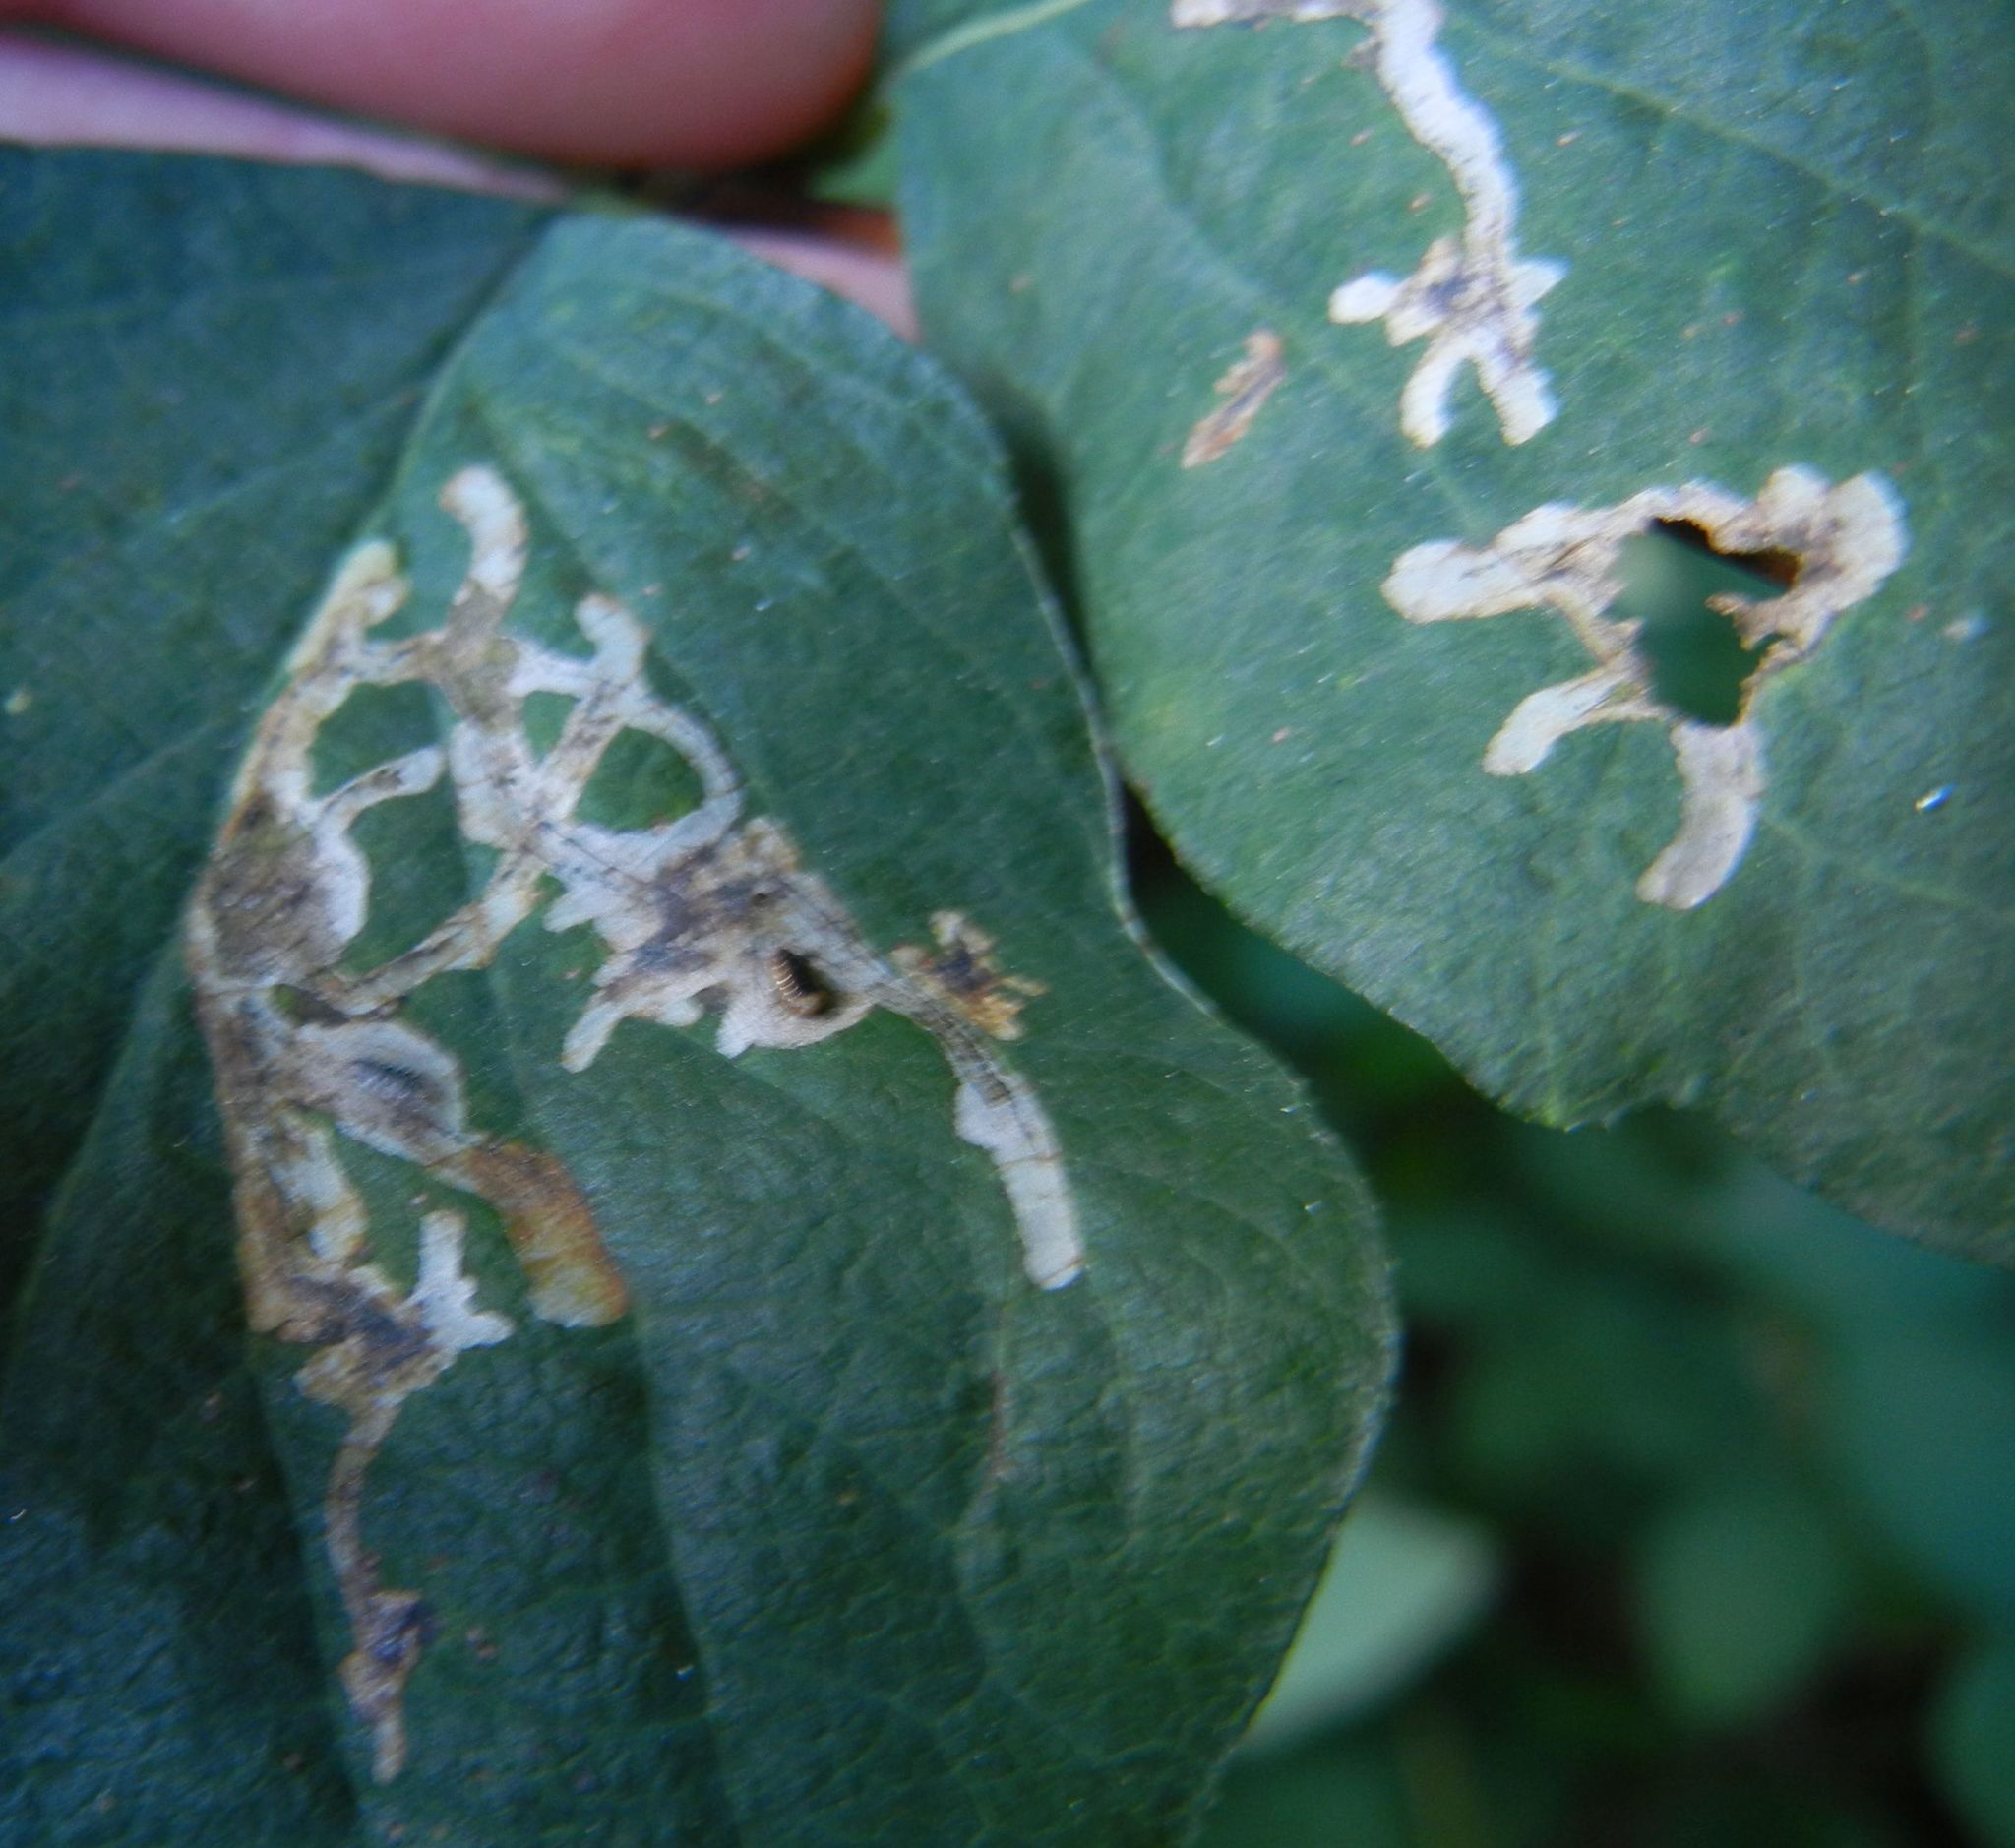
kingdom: Animalia
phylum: Arthropoda
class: Insecta
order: Diptera
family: Agromyzidae
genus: Phytomyza
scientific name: Phytomyza lonicerae
